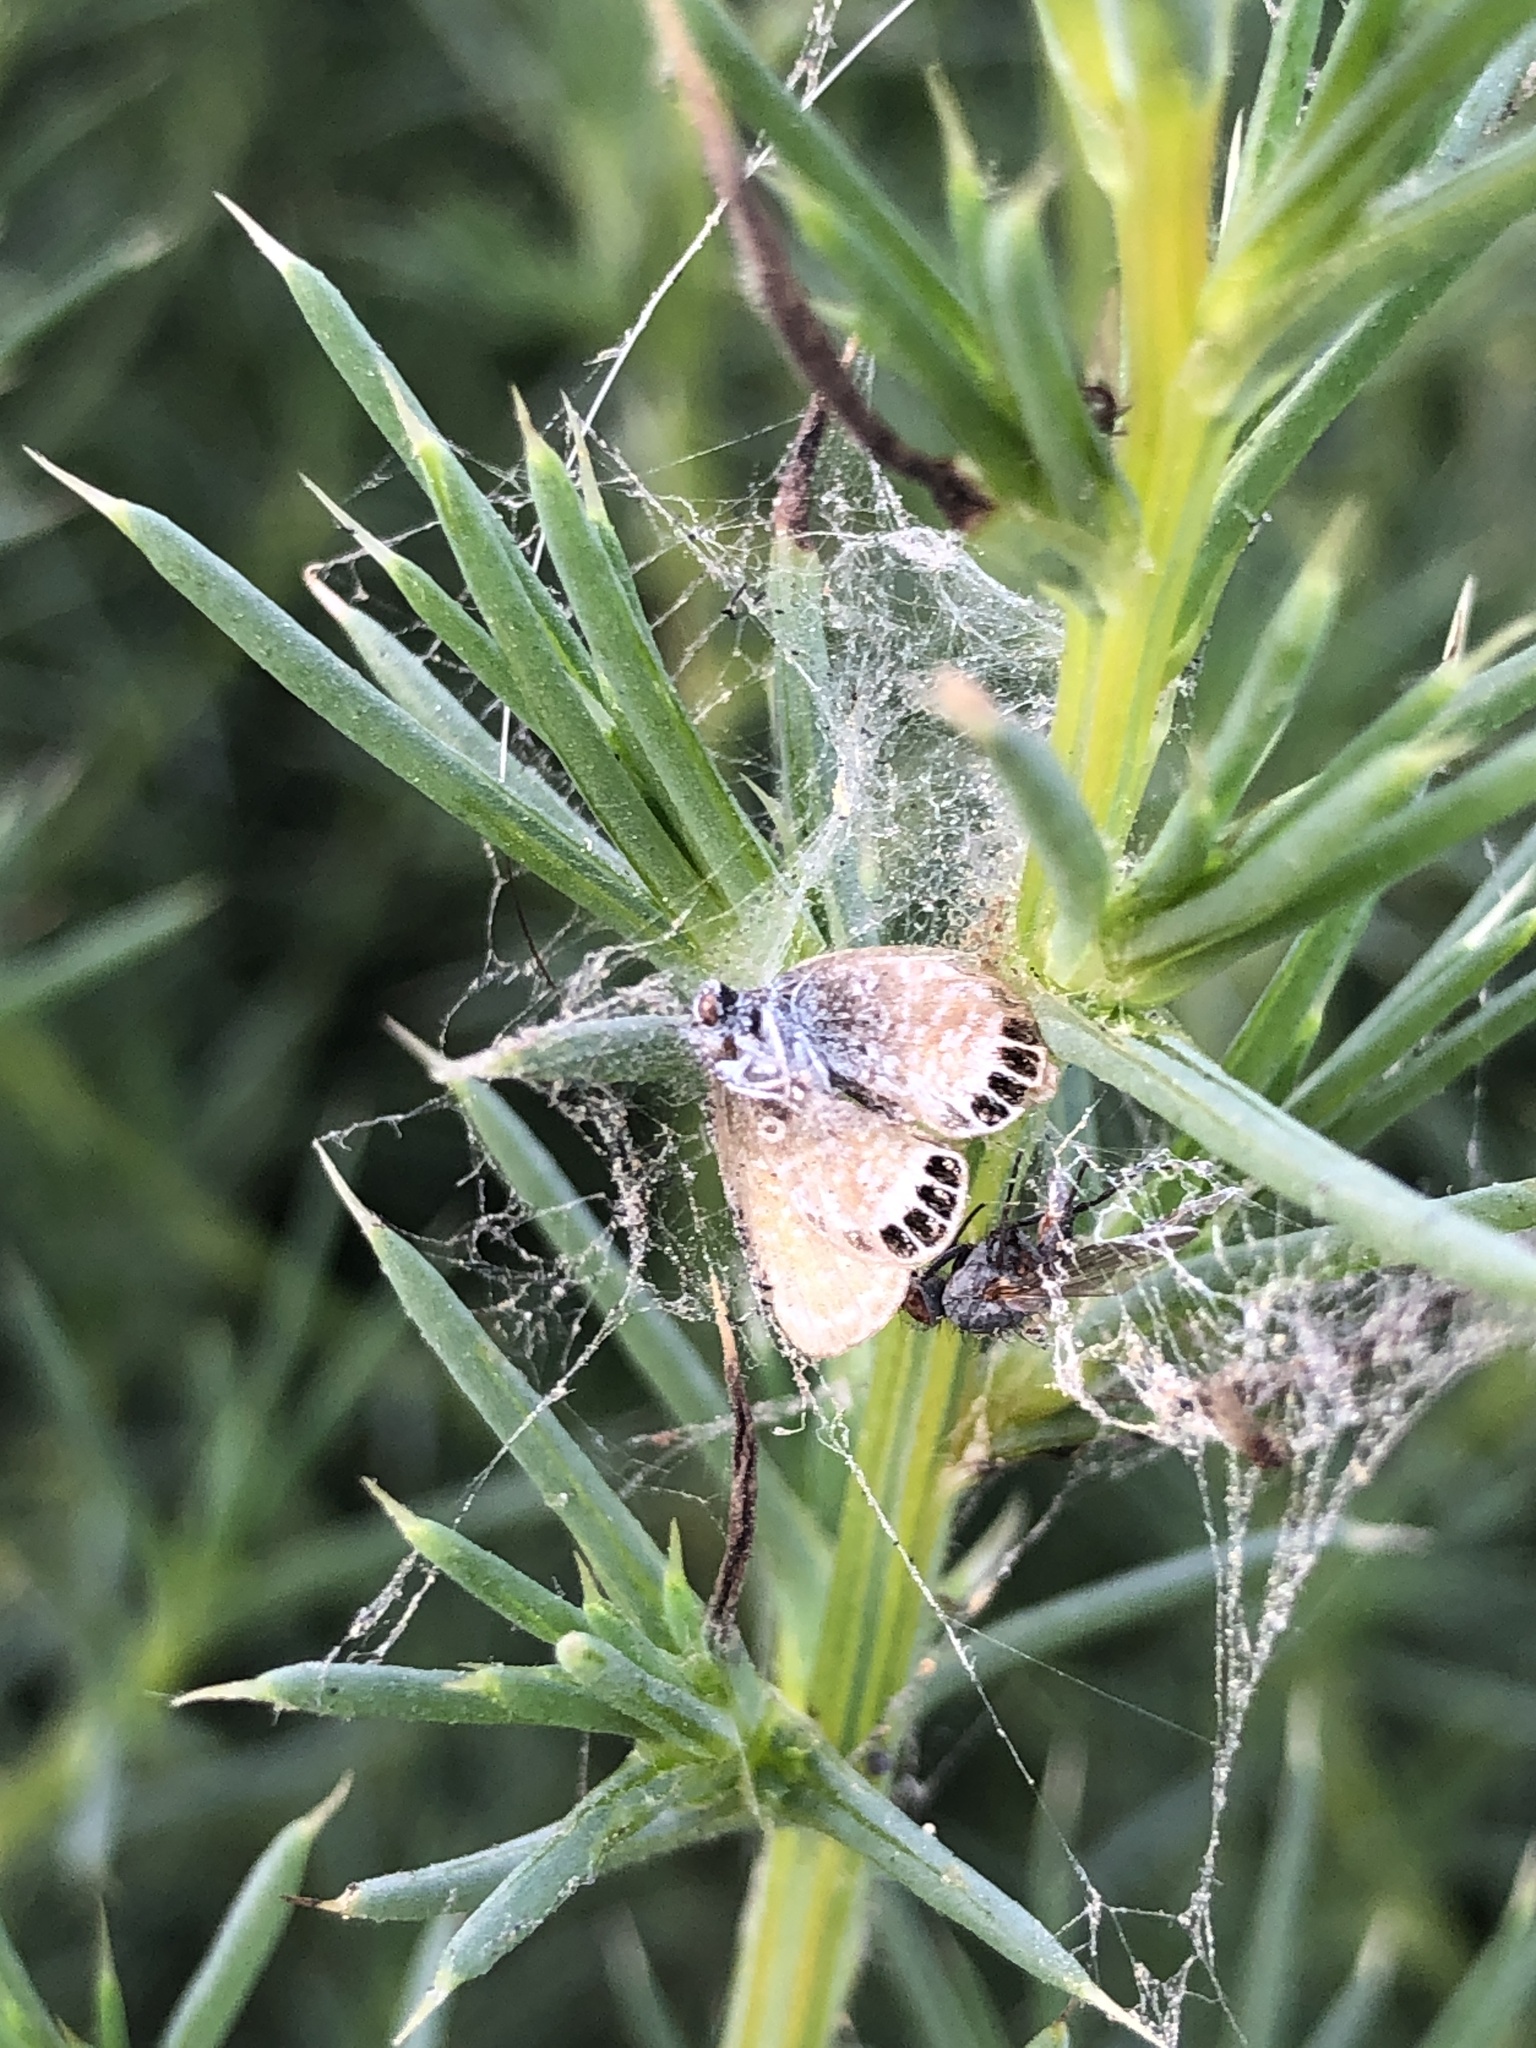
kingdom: Animalia
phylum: Arthropoda
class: Insecta
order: Lepidoptera
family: Lycaenidae
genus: Brephidium
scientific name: Brephidium exilis
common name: Pygmy blue
